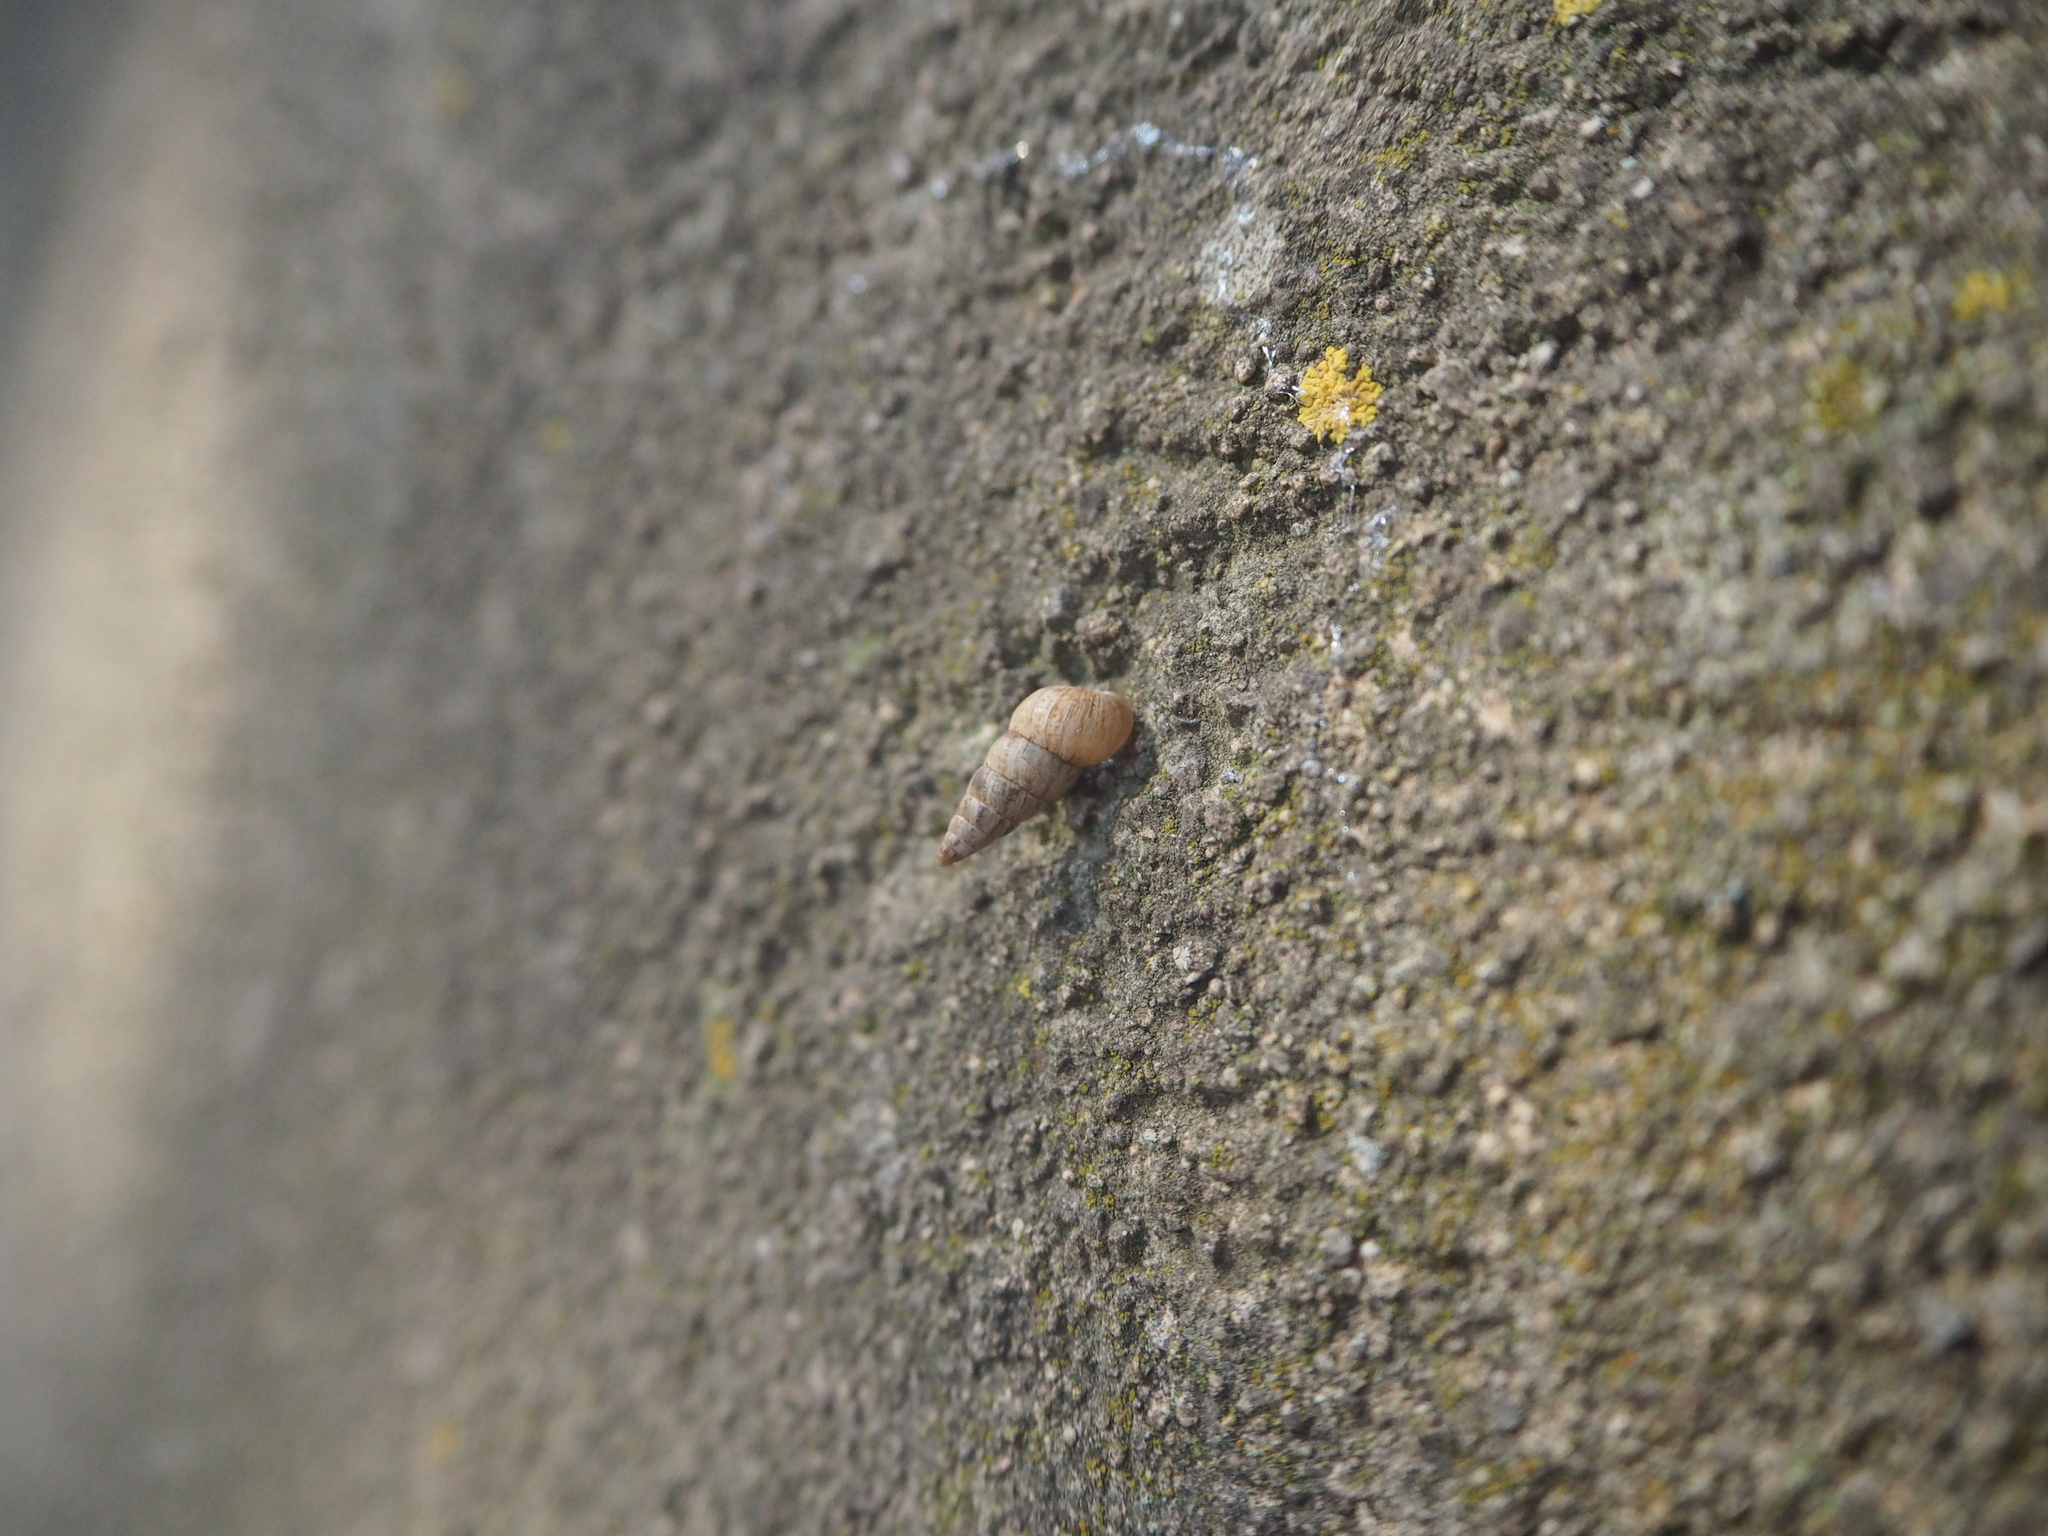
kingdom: Animalia
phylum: Mollusca
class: Gastropoda
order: Stylommatophora
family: Geomitridae
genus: Cochlicella
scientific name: Cochlicella acuta
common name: Pointed snail
